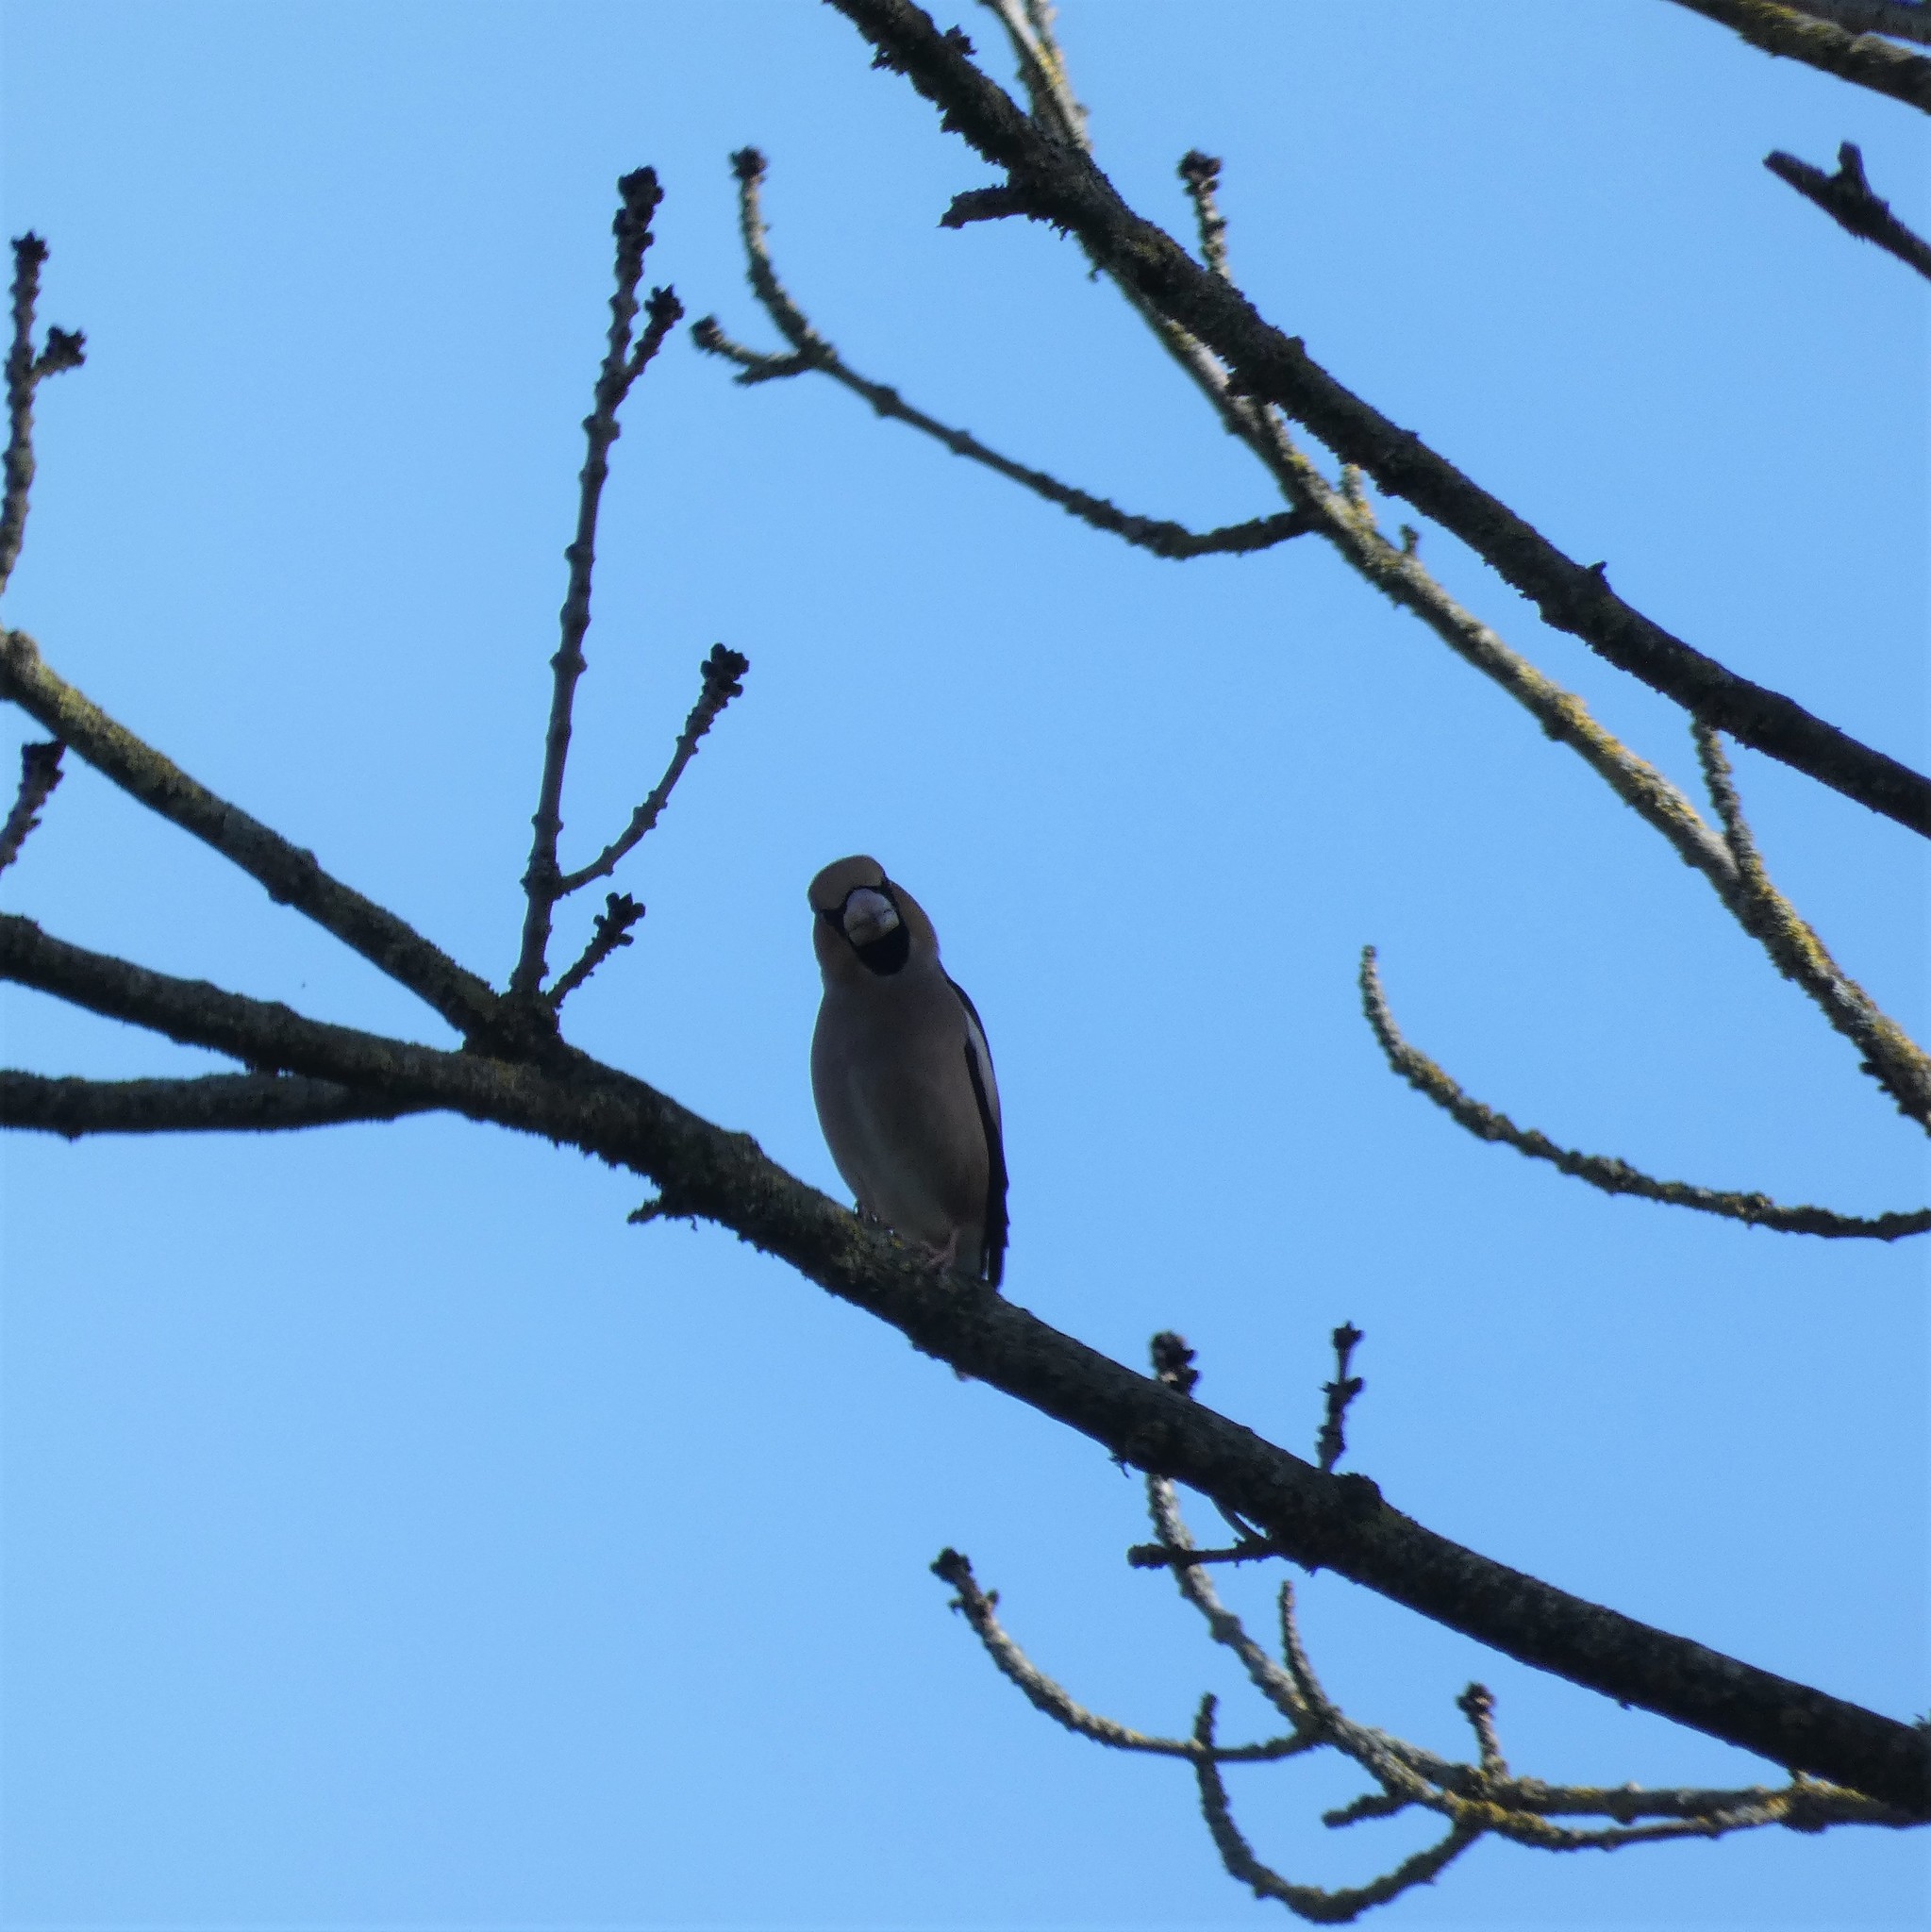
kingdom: Animalia
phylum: Chordata
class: Aves
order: Passeriformes
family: Fringillidae
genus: Coccothraustes
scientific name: Coccothraustes coccothraustes
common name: Hawfinch
